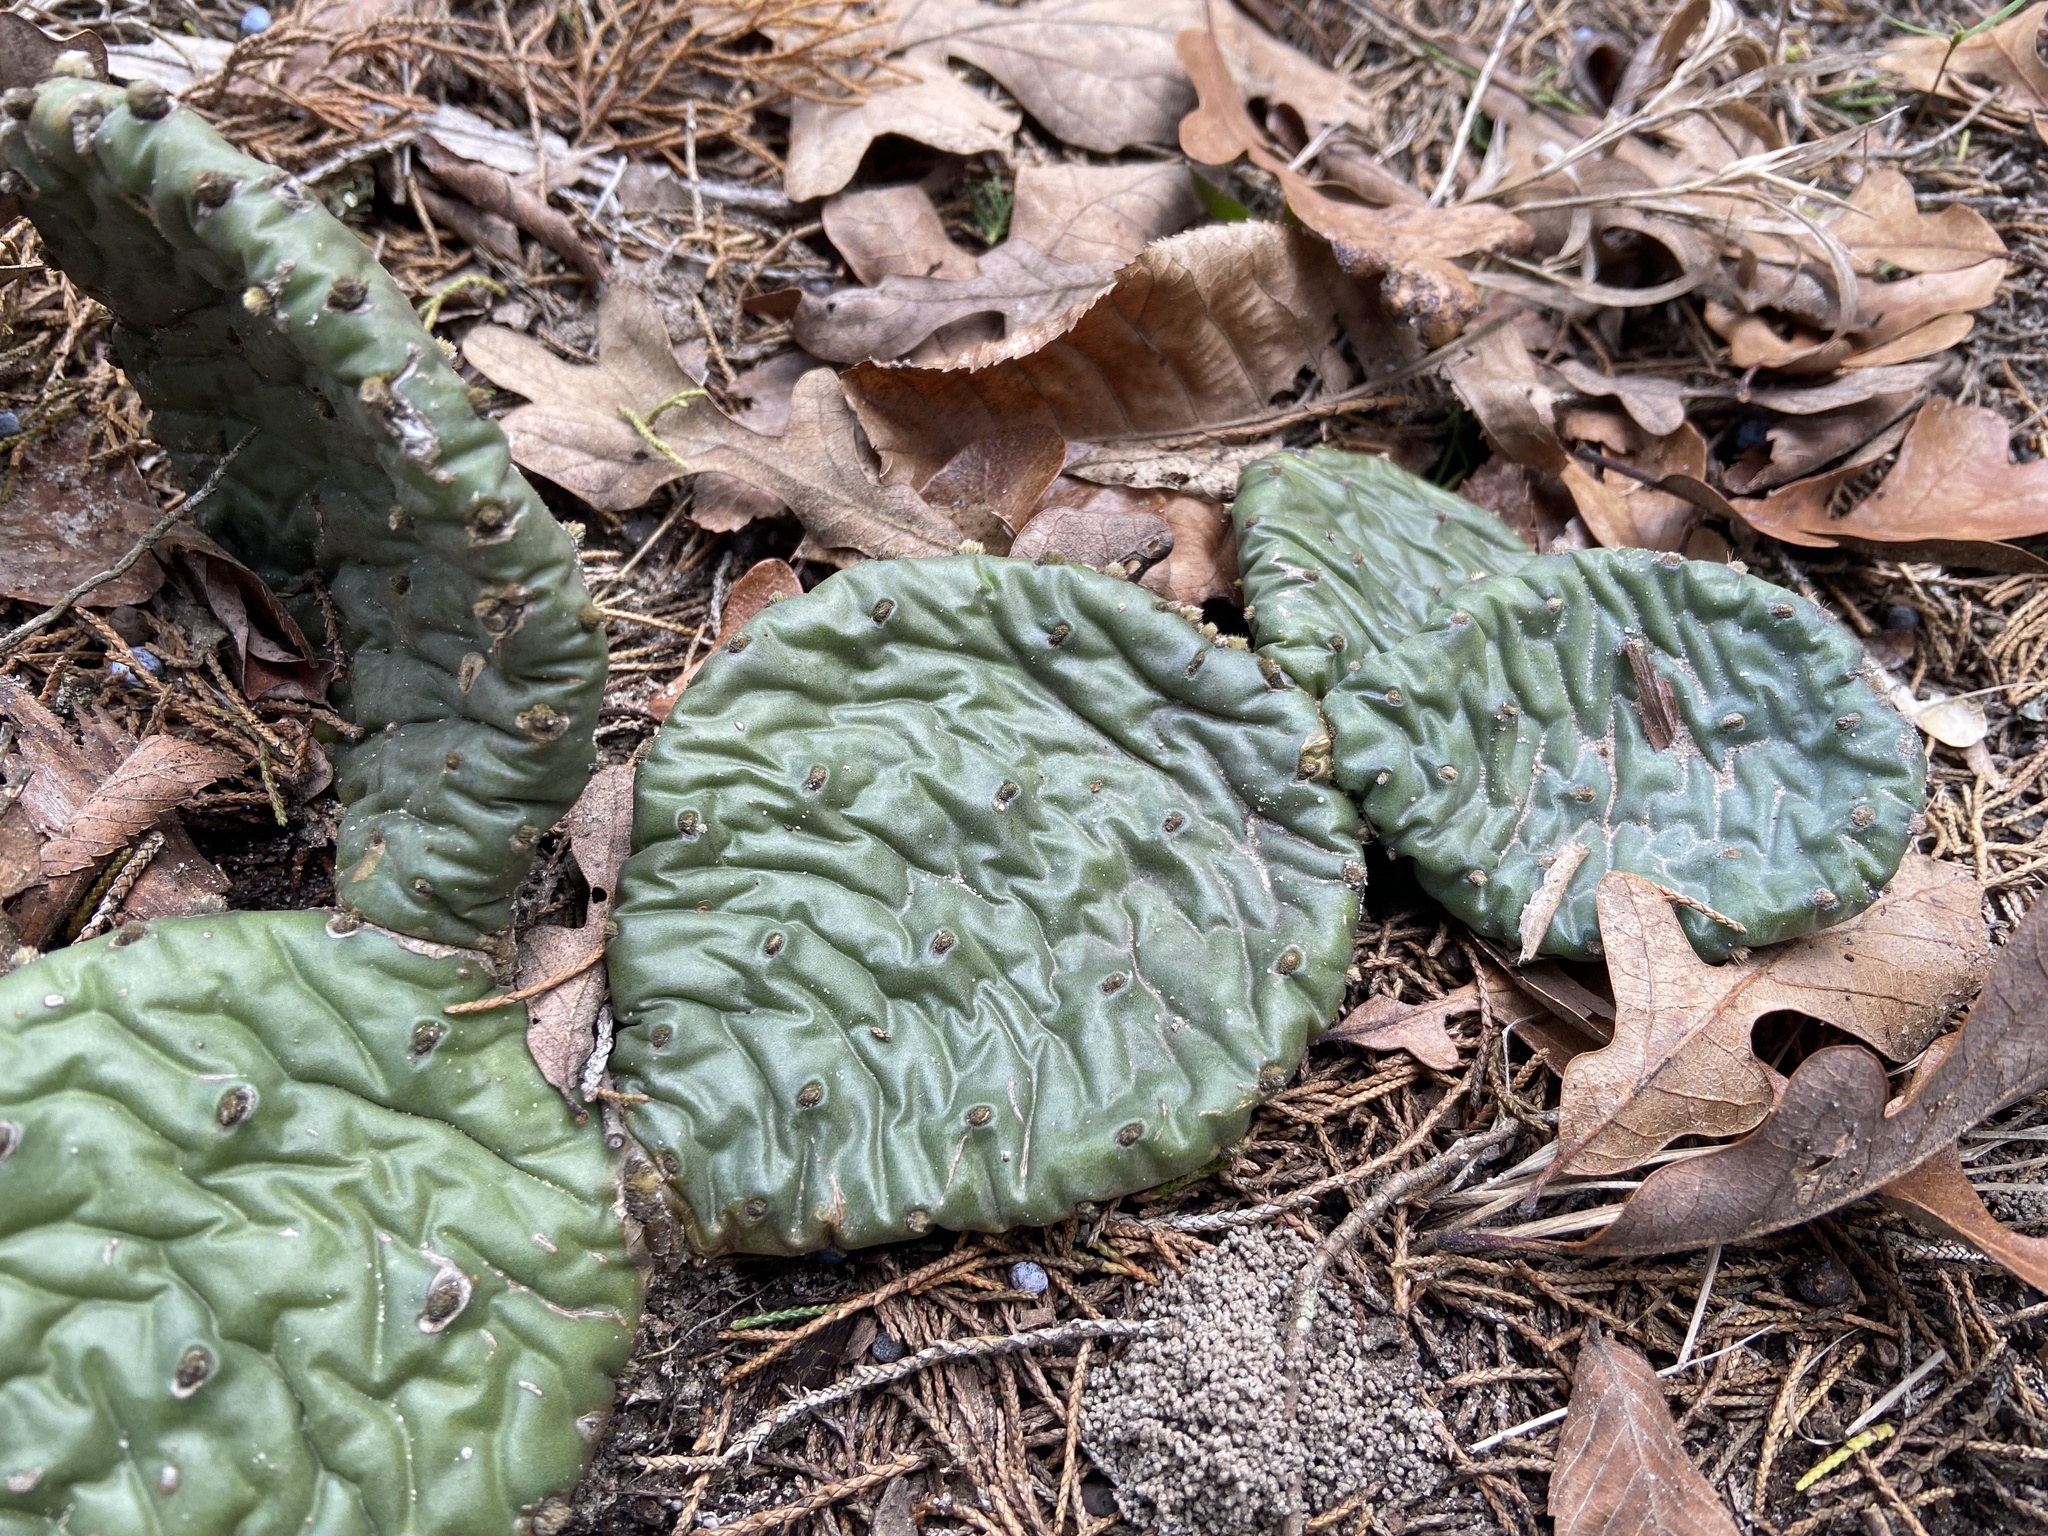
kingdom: Plantae
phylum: Tracheophyta
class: Magnoliopsida
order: Caryophyllales
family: Cactaceae
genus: Opuntia
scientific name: Opuntia macrorhiza
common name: Grassland pricklypear
